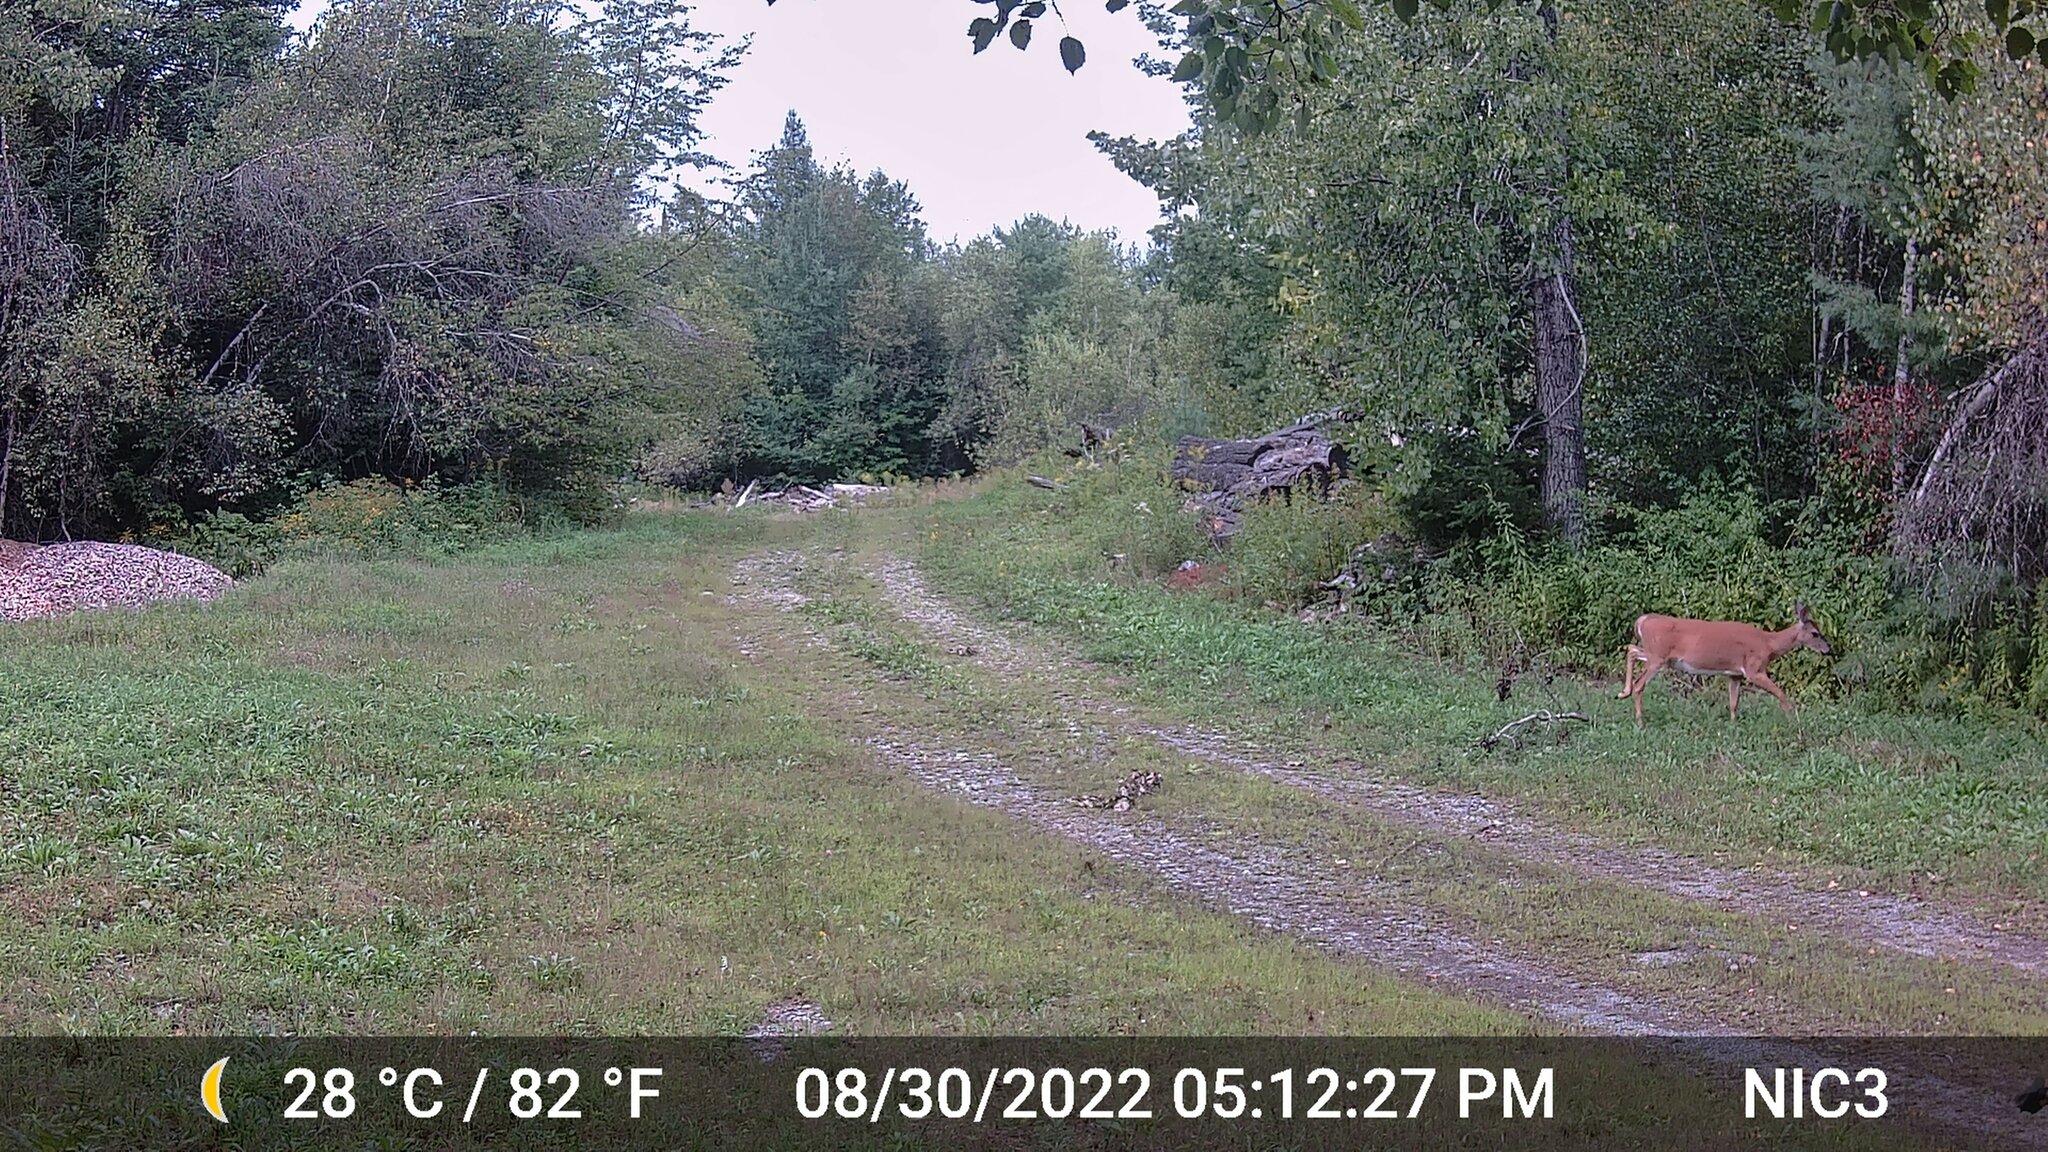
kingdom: Animalia
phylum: Chordata
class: Mammalia
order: Artiodactyla
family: Cervidae
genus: Odocoileus
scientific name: Odocoileus virginianus
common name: White-tailed deer
